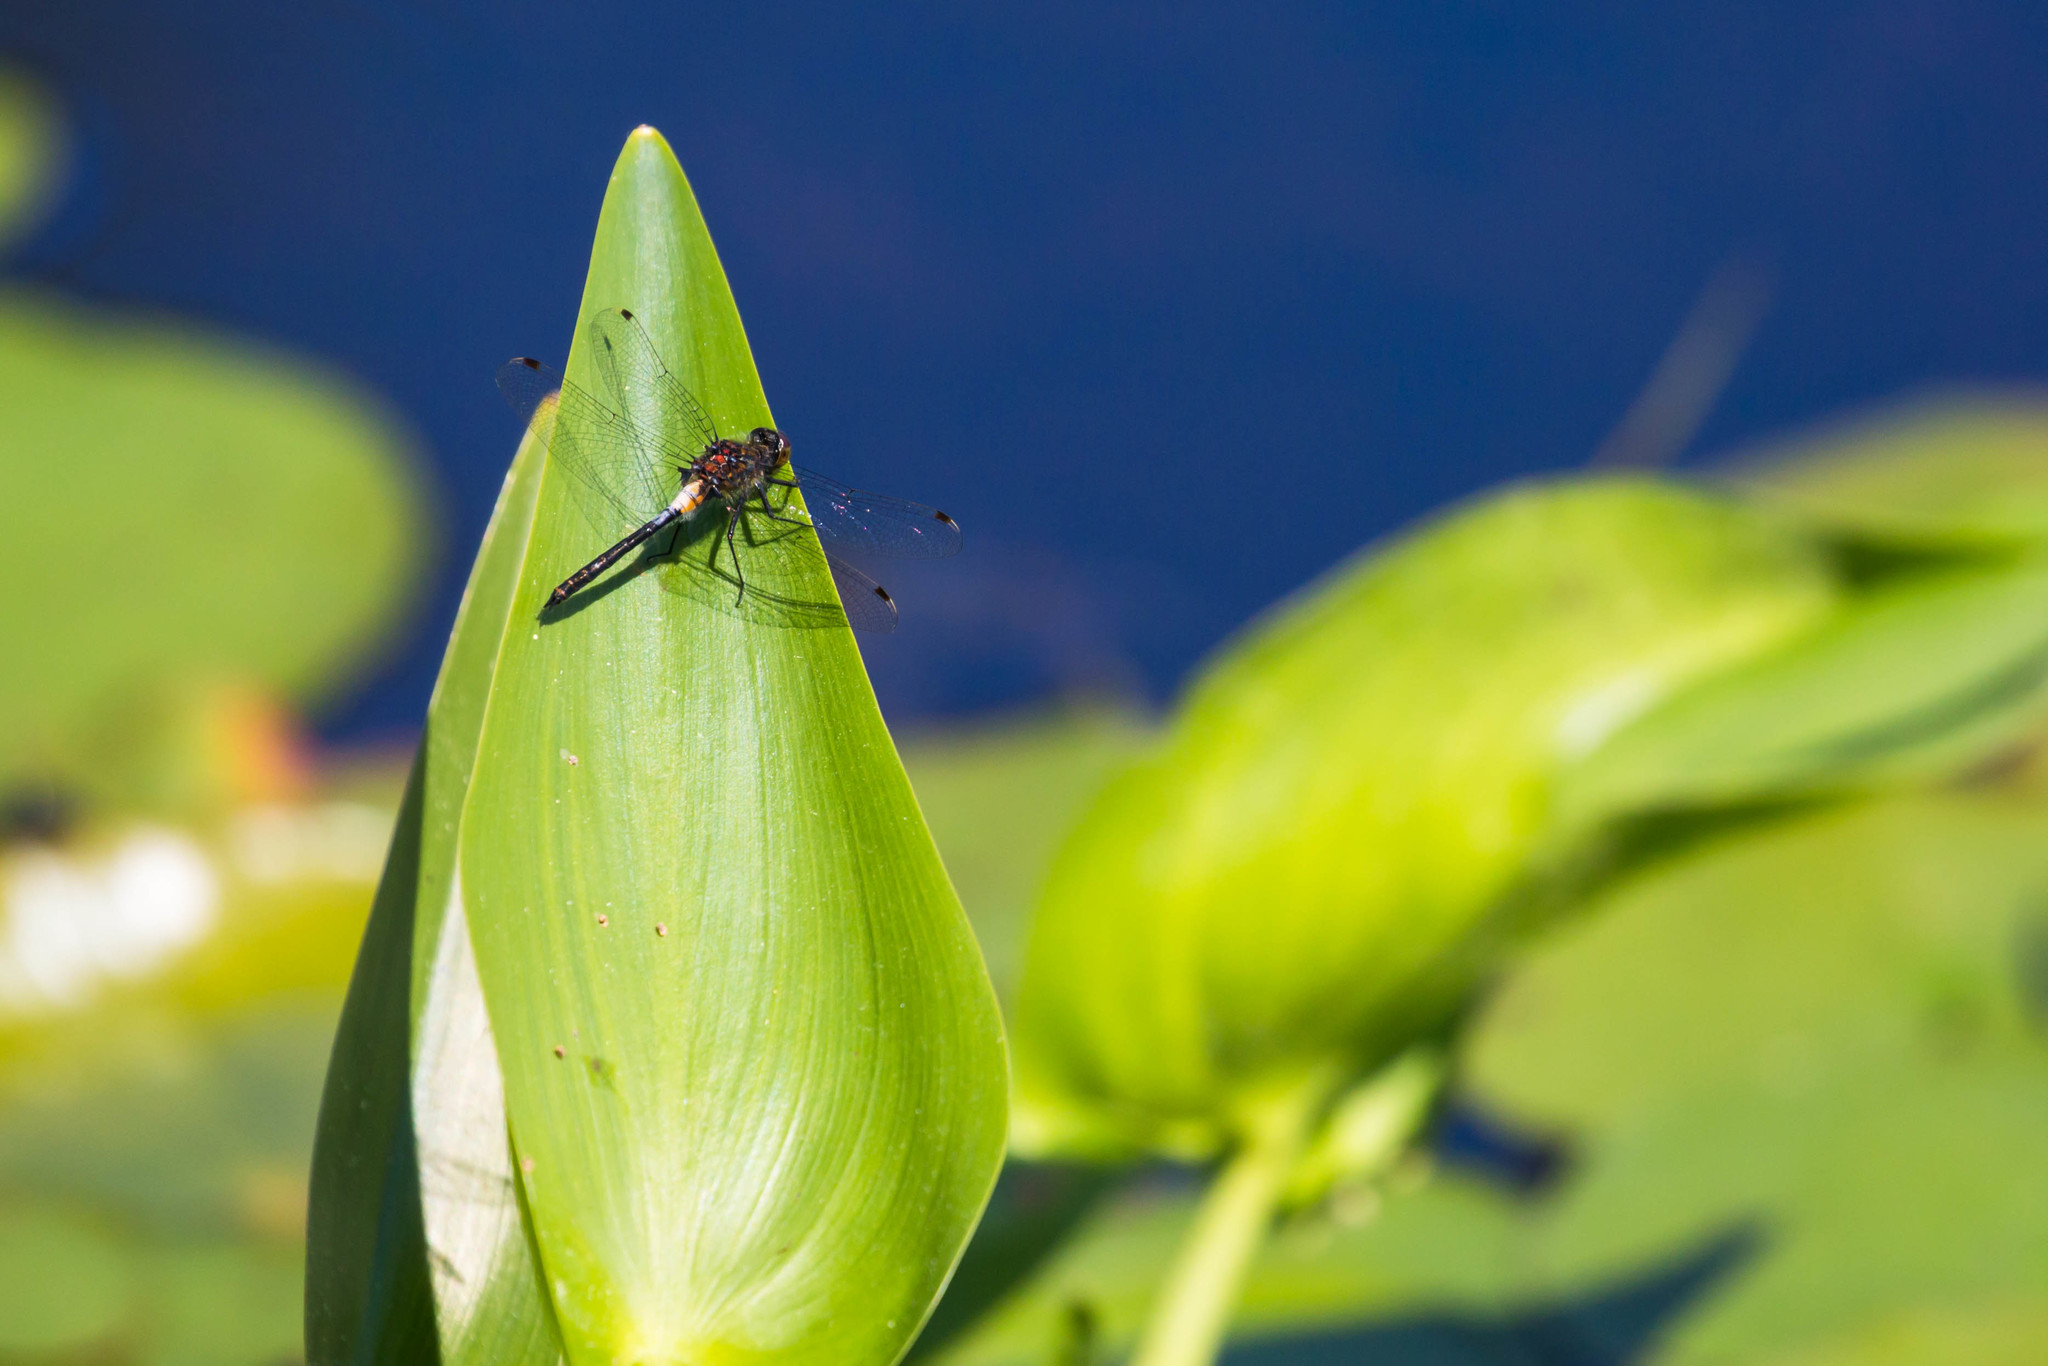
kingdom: Animalia
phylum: Arthropoda
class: Insecta
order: Odonata
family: Libellulidae
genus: Leucorrhinia
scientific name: Leucorrhinia proxima
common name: Belted whiteface
